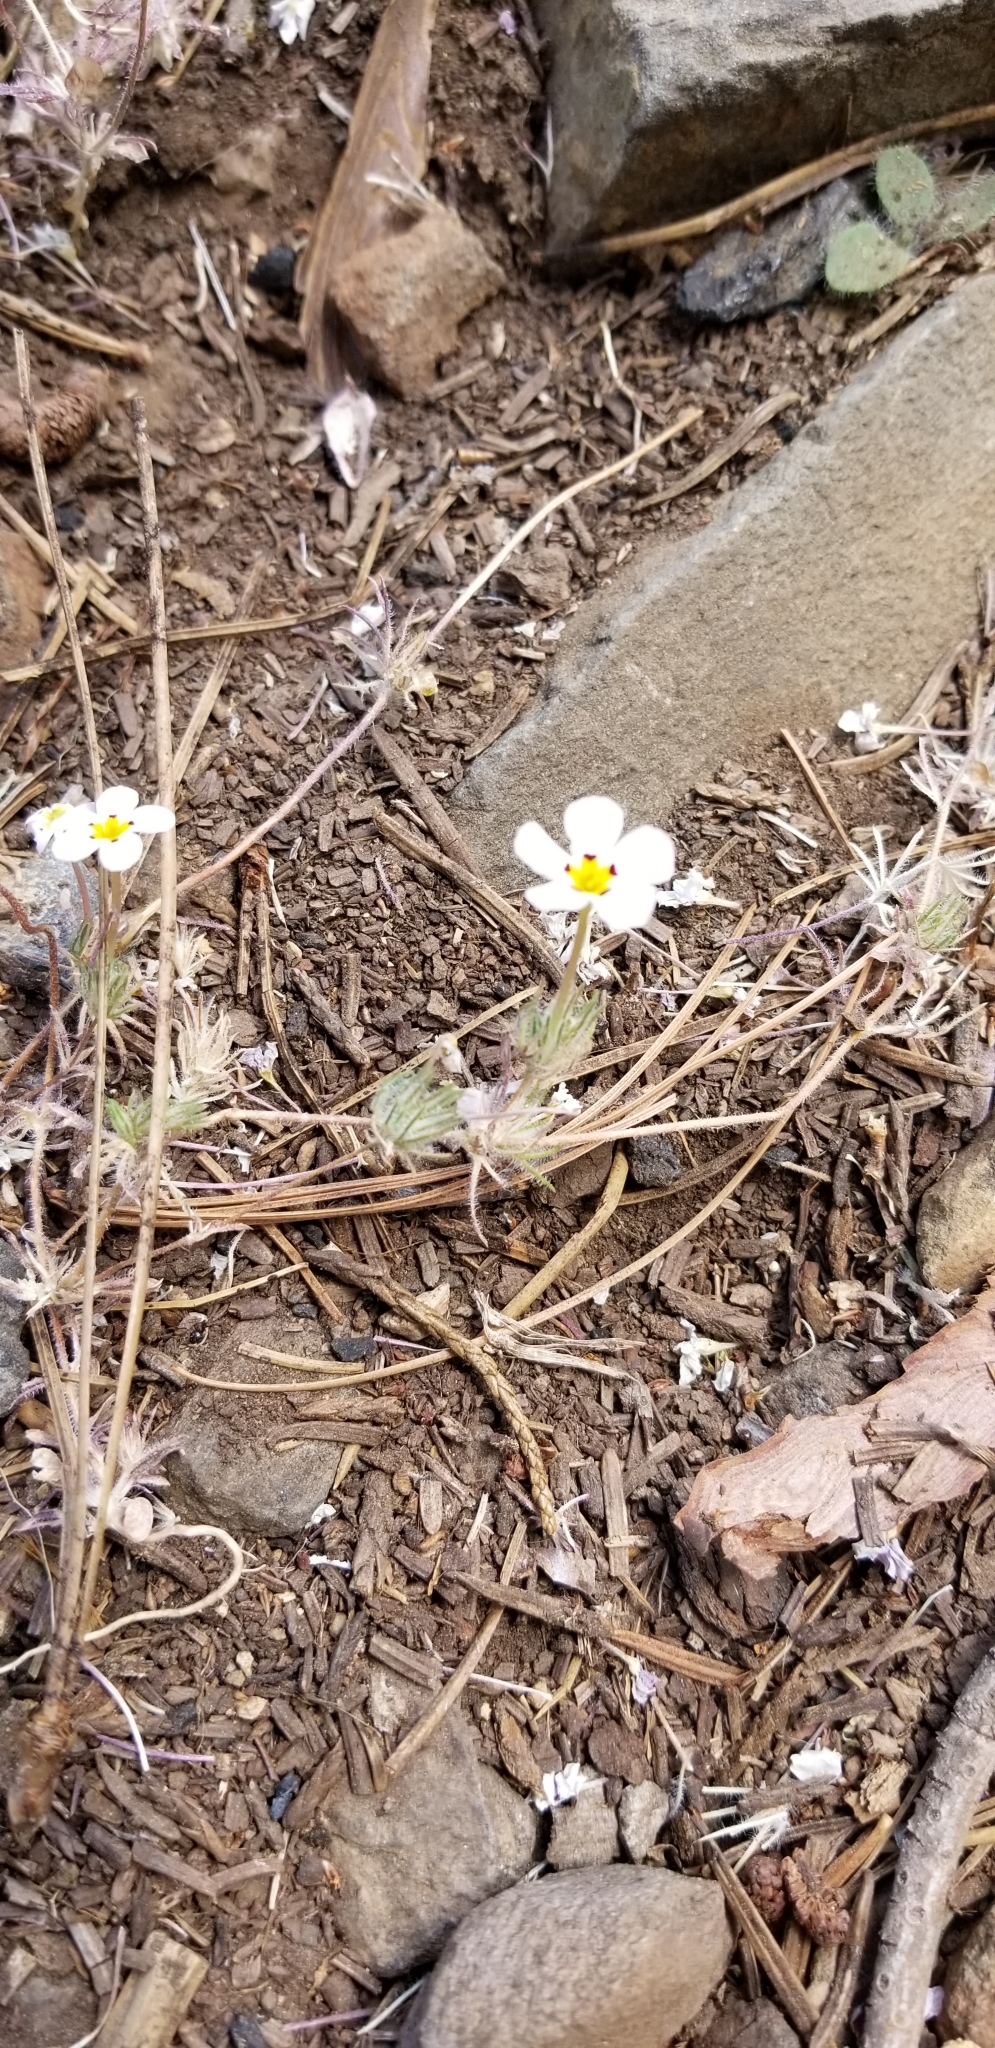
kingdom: Plantae
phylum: Tracheophyta
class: Magnoliopsida
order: Ericales
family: Polemoniaceae
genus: Leptosiphon
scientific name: Leptosiphon ciliatus
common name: Whiskerbrush
